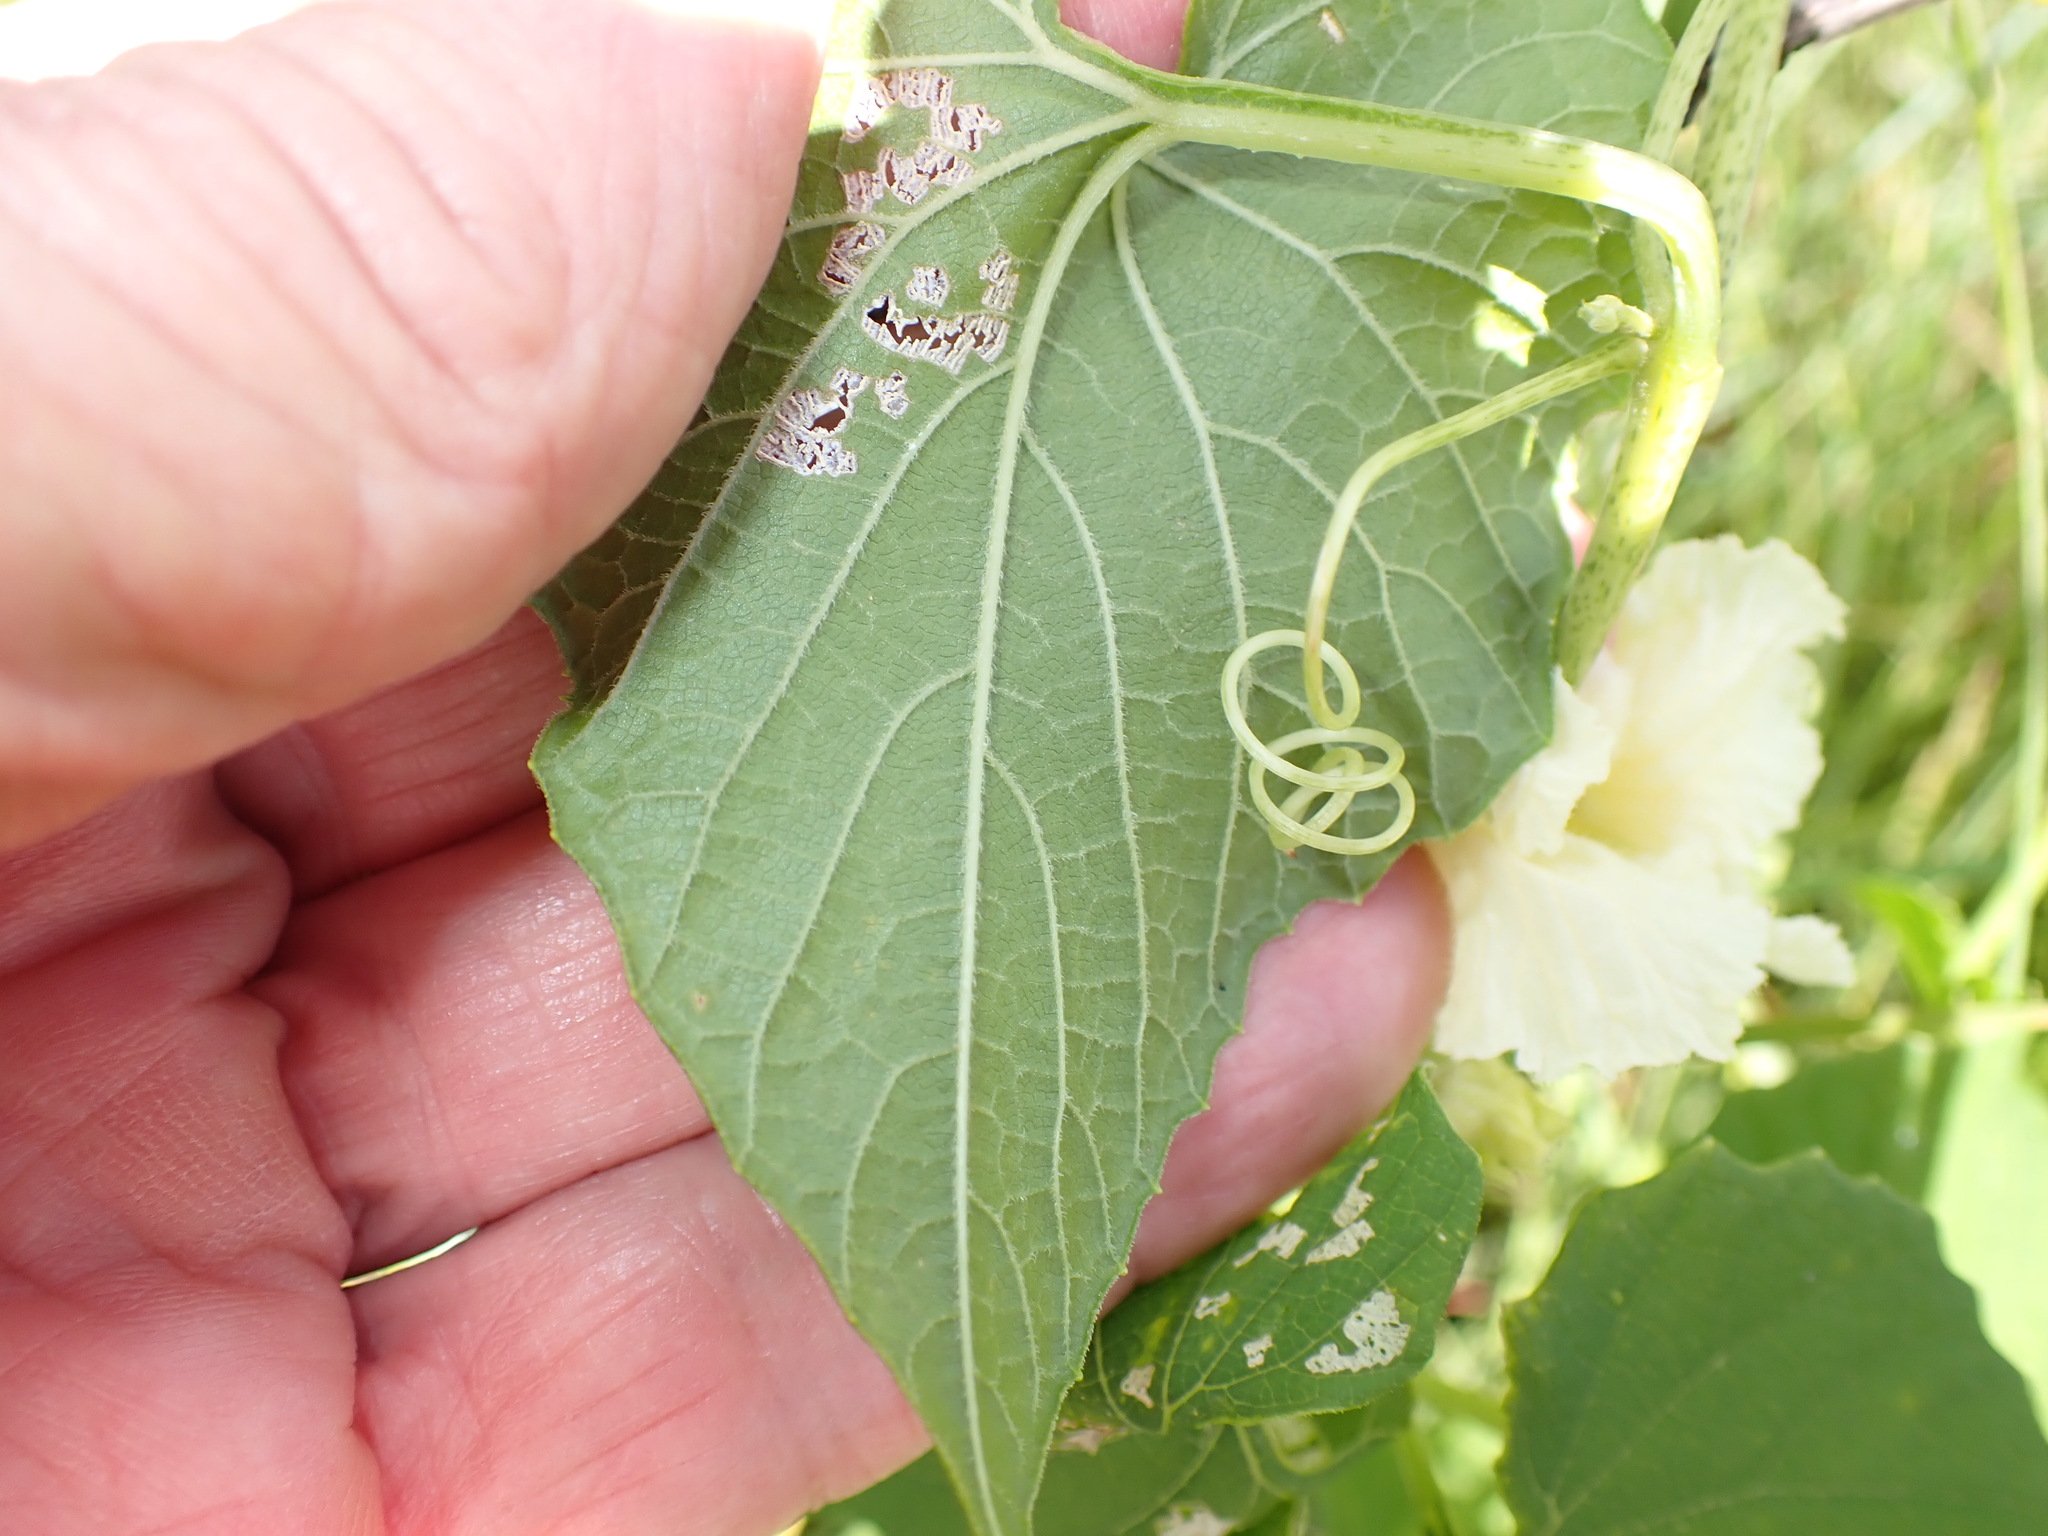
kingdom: Plantae
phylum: Tracheophyta
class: Magnoliopsida
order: Cucurbitales
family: Cucurbitaceae
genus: Momordica
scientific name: Momordica foetida
